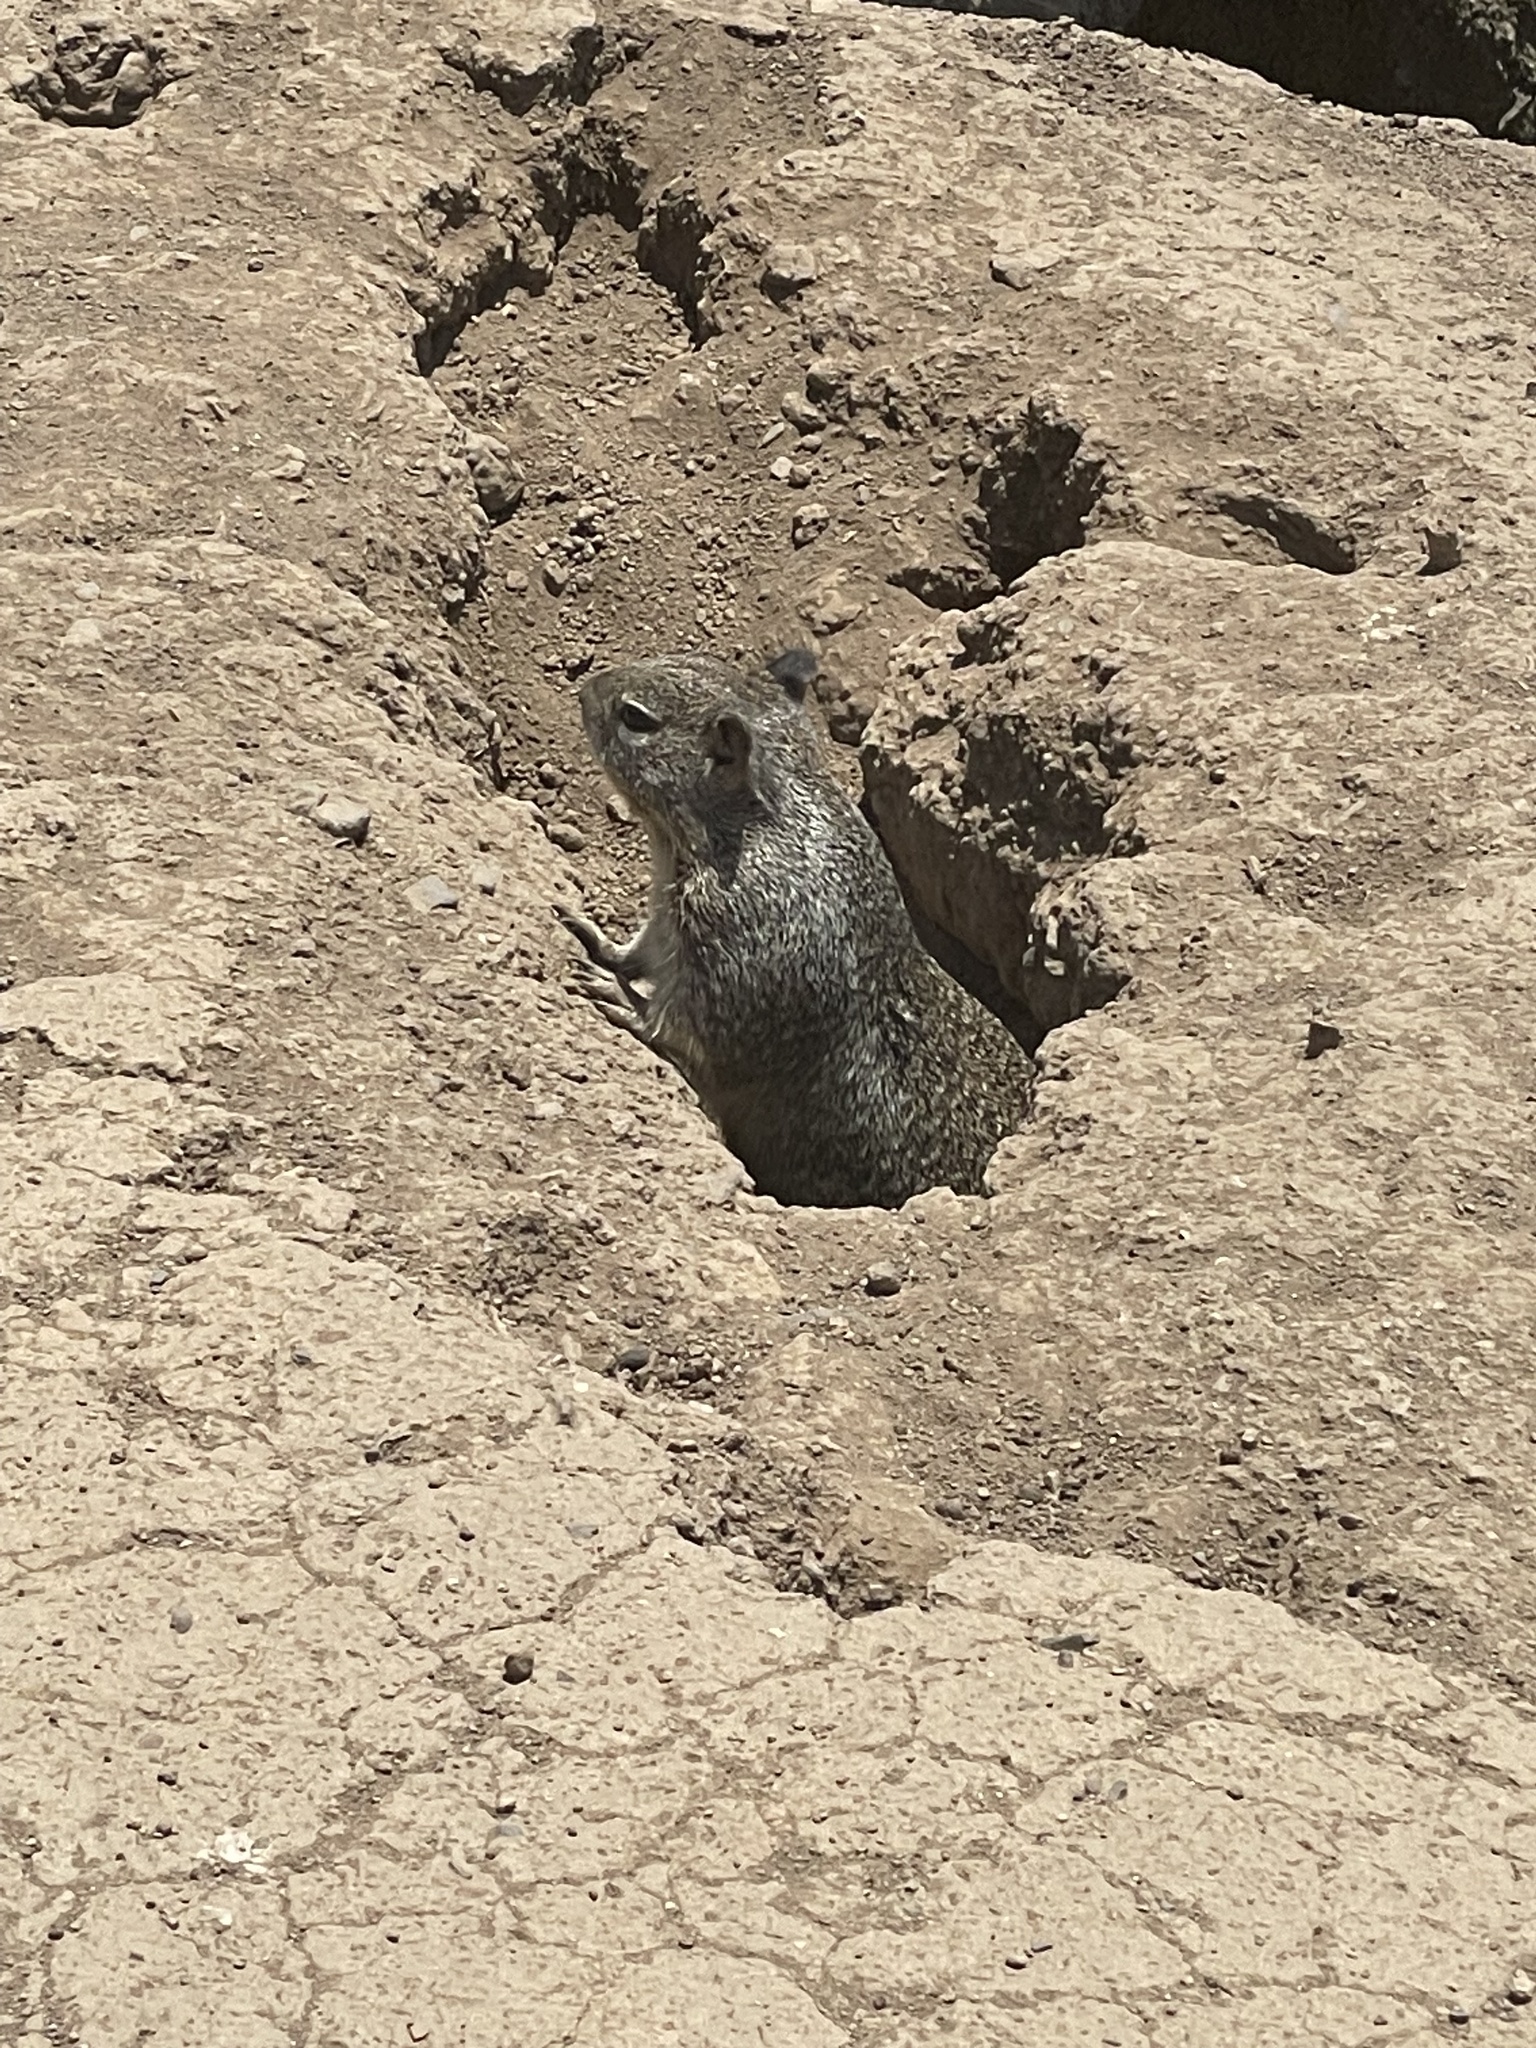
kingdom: Animalia
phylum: Chordata
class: Mammalia
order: Rodentia
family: Sciuridae
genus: Otospermophilus
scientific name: Otospermophilus beecheyi
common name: California ground squirrel
